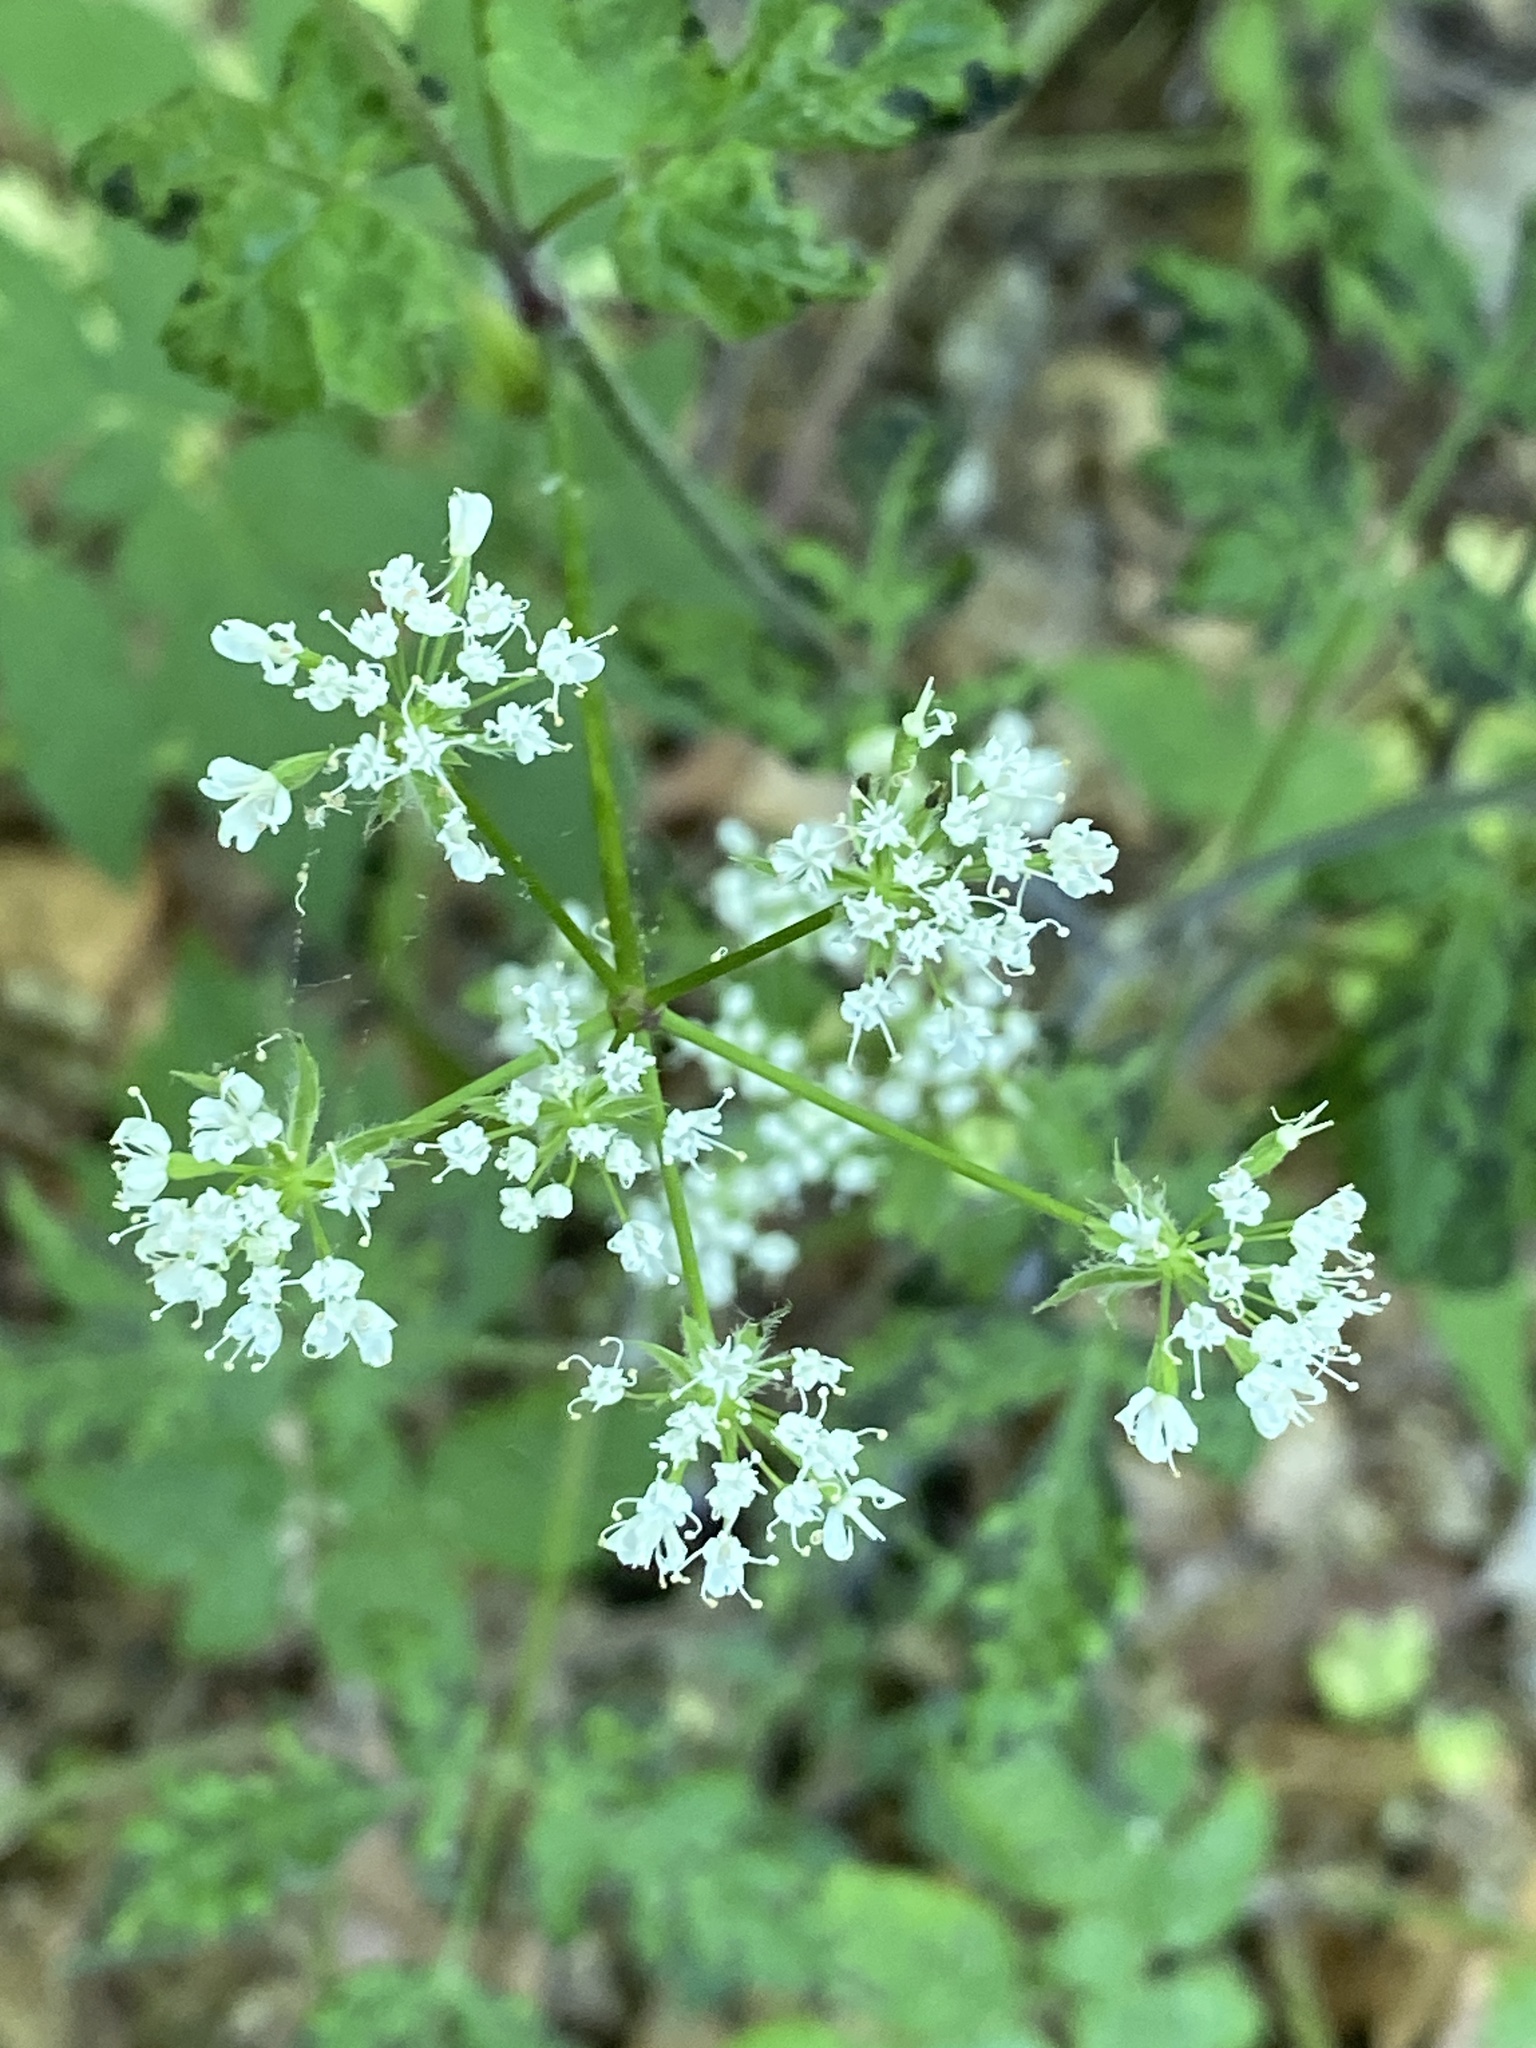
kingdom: Plantae
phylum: Tracheophyta
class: Magnoliopsida
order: Apiales
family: Apiaceae
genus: Osmorhiza
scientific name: Osmorhiza longistylis
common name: Smooth sweet cicely
